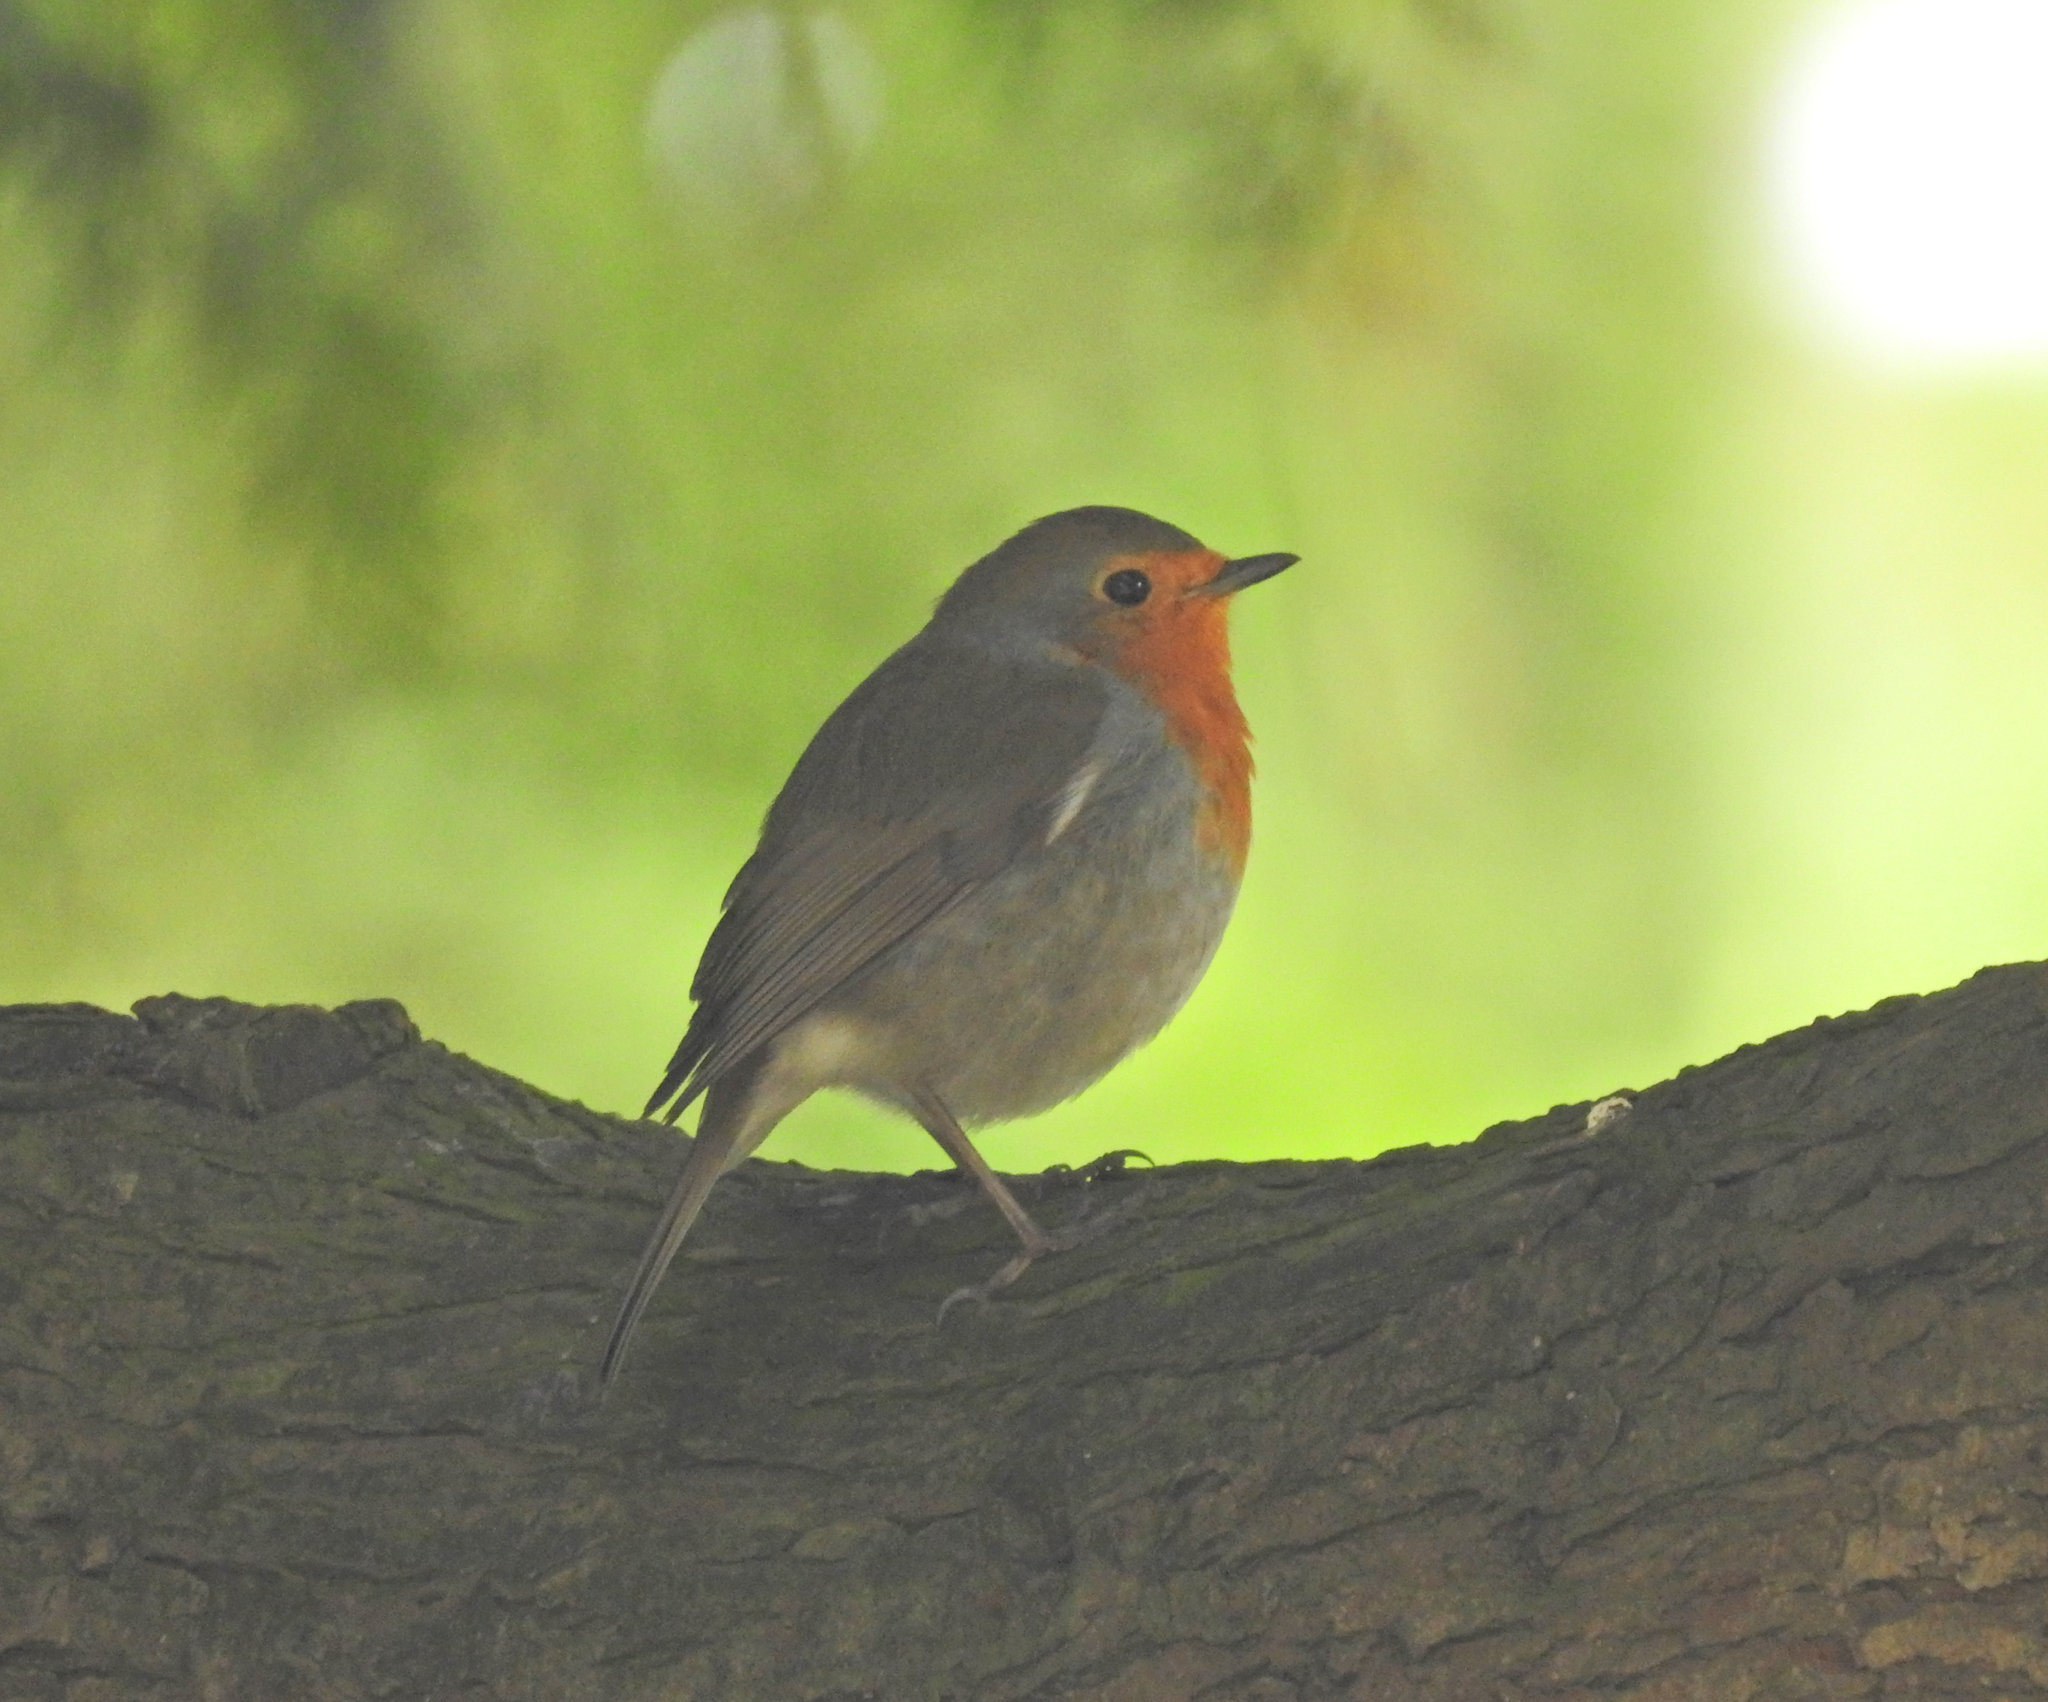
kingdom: Animalia
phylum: Chordata
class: Aves
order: Passeriformes
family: Muscicapidae
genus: Erithacus
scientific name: Erithacus rubecula
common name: European robin
